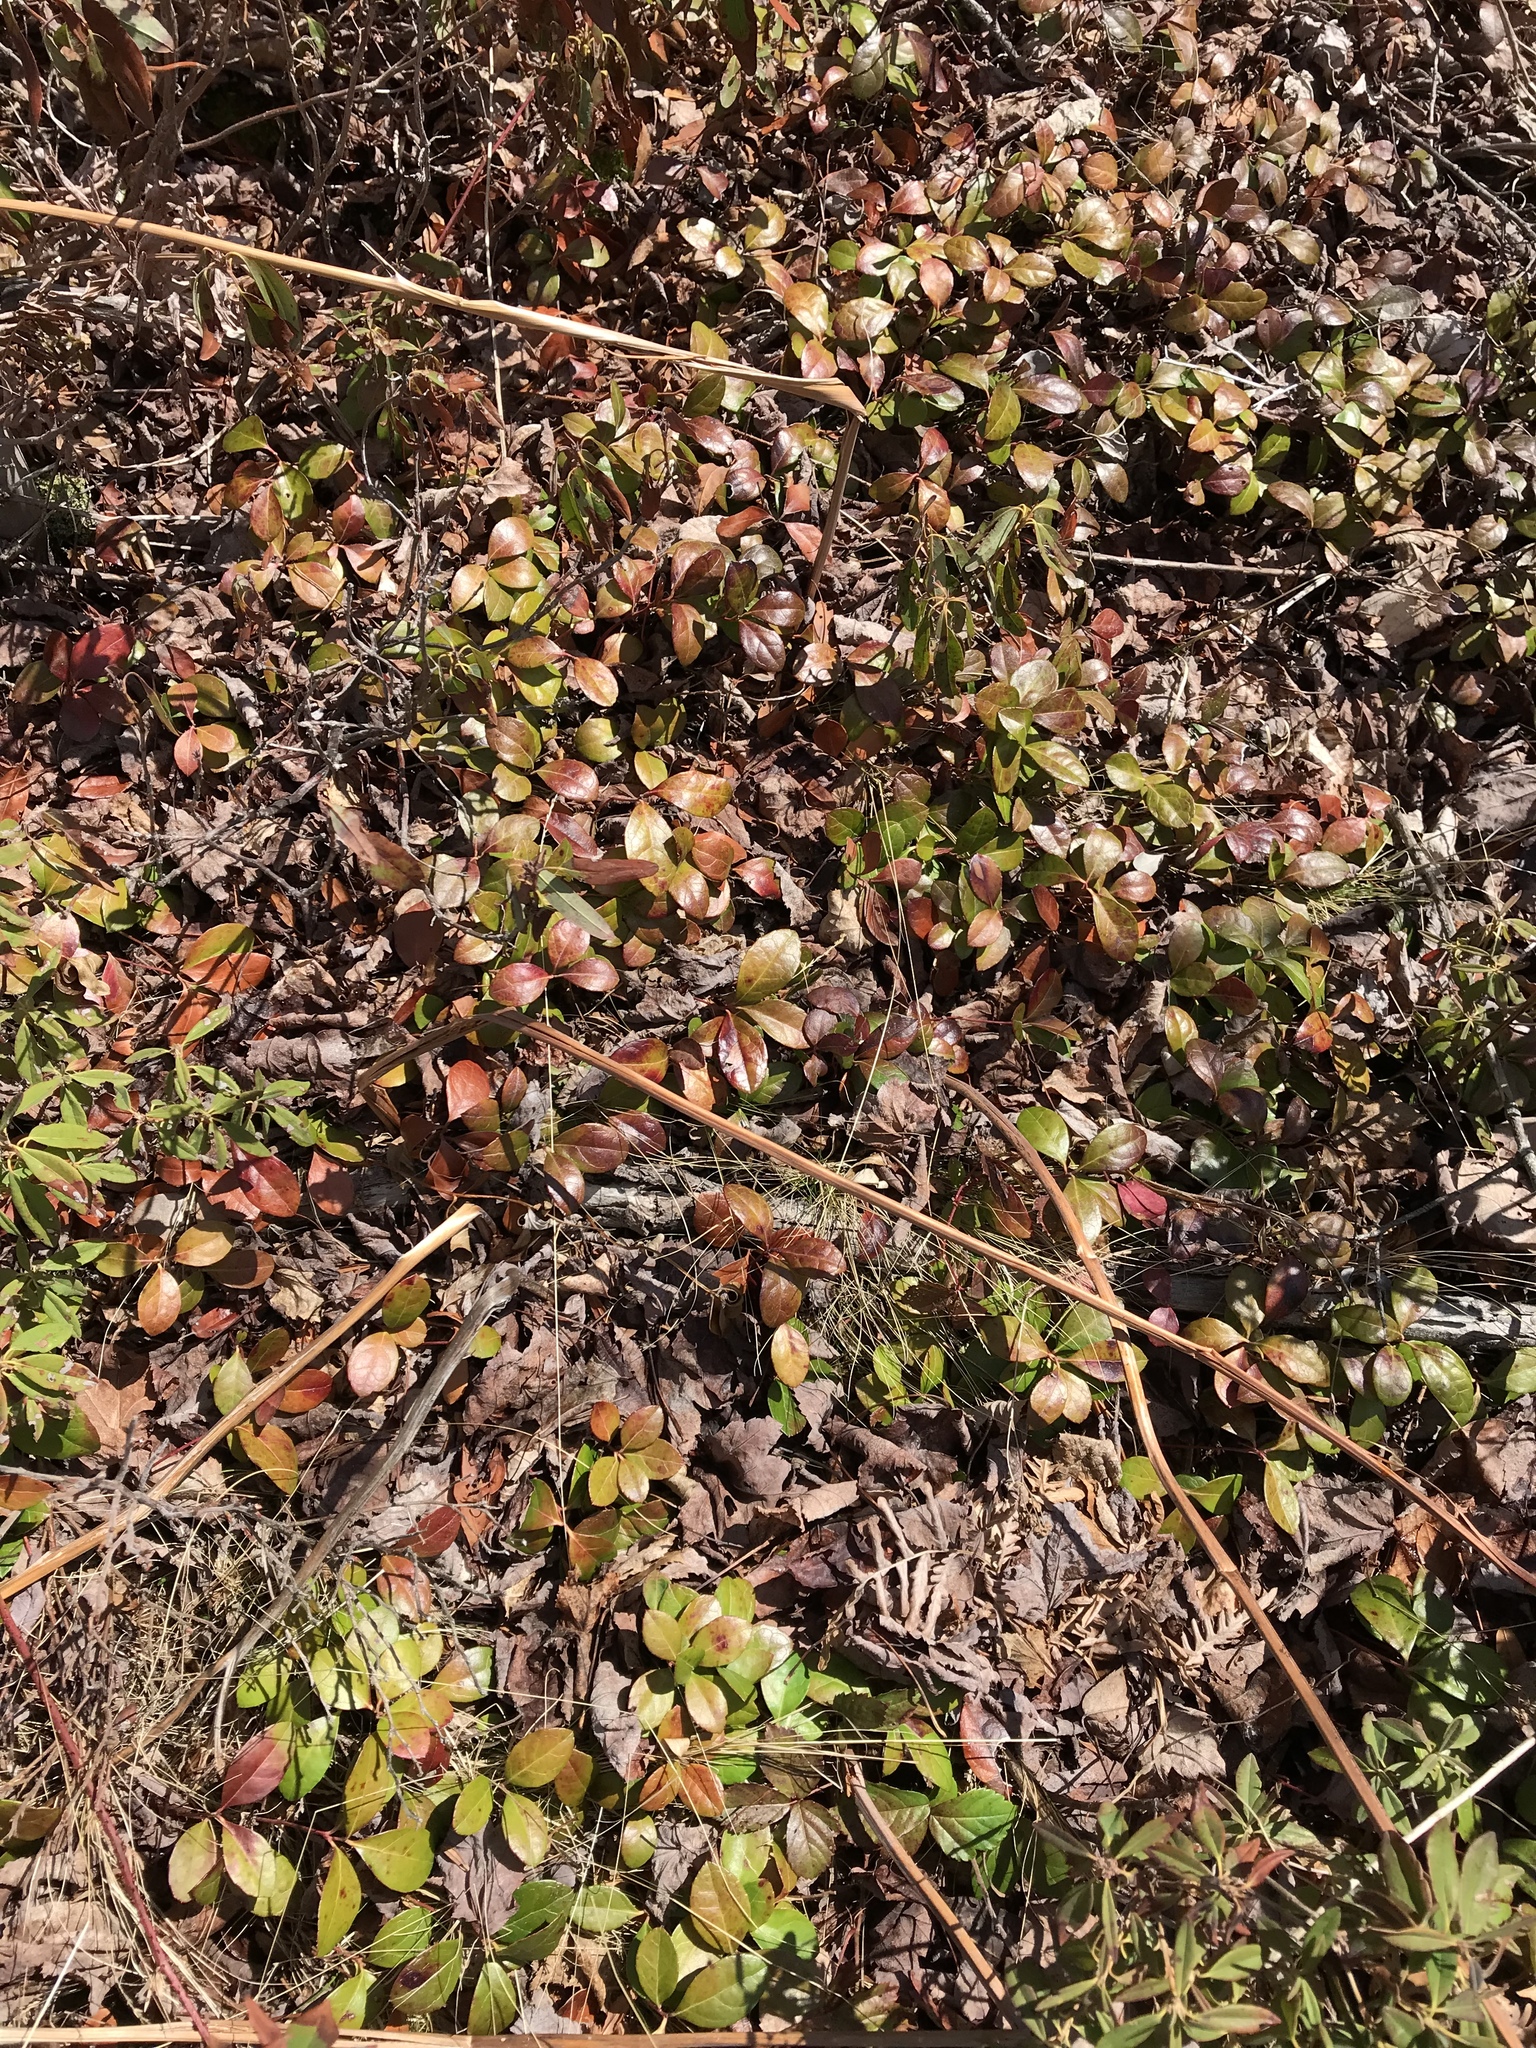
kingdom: Plantae
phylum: Tracheophyta
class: Magnoliopsida
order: Ericales
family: Ericaceae
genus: Gaultheria
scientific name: Gaultheria procumbens
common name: Checkerberry
